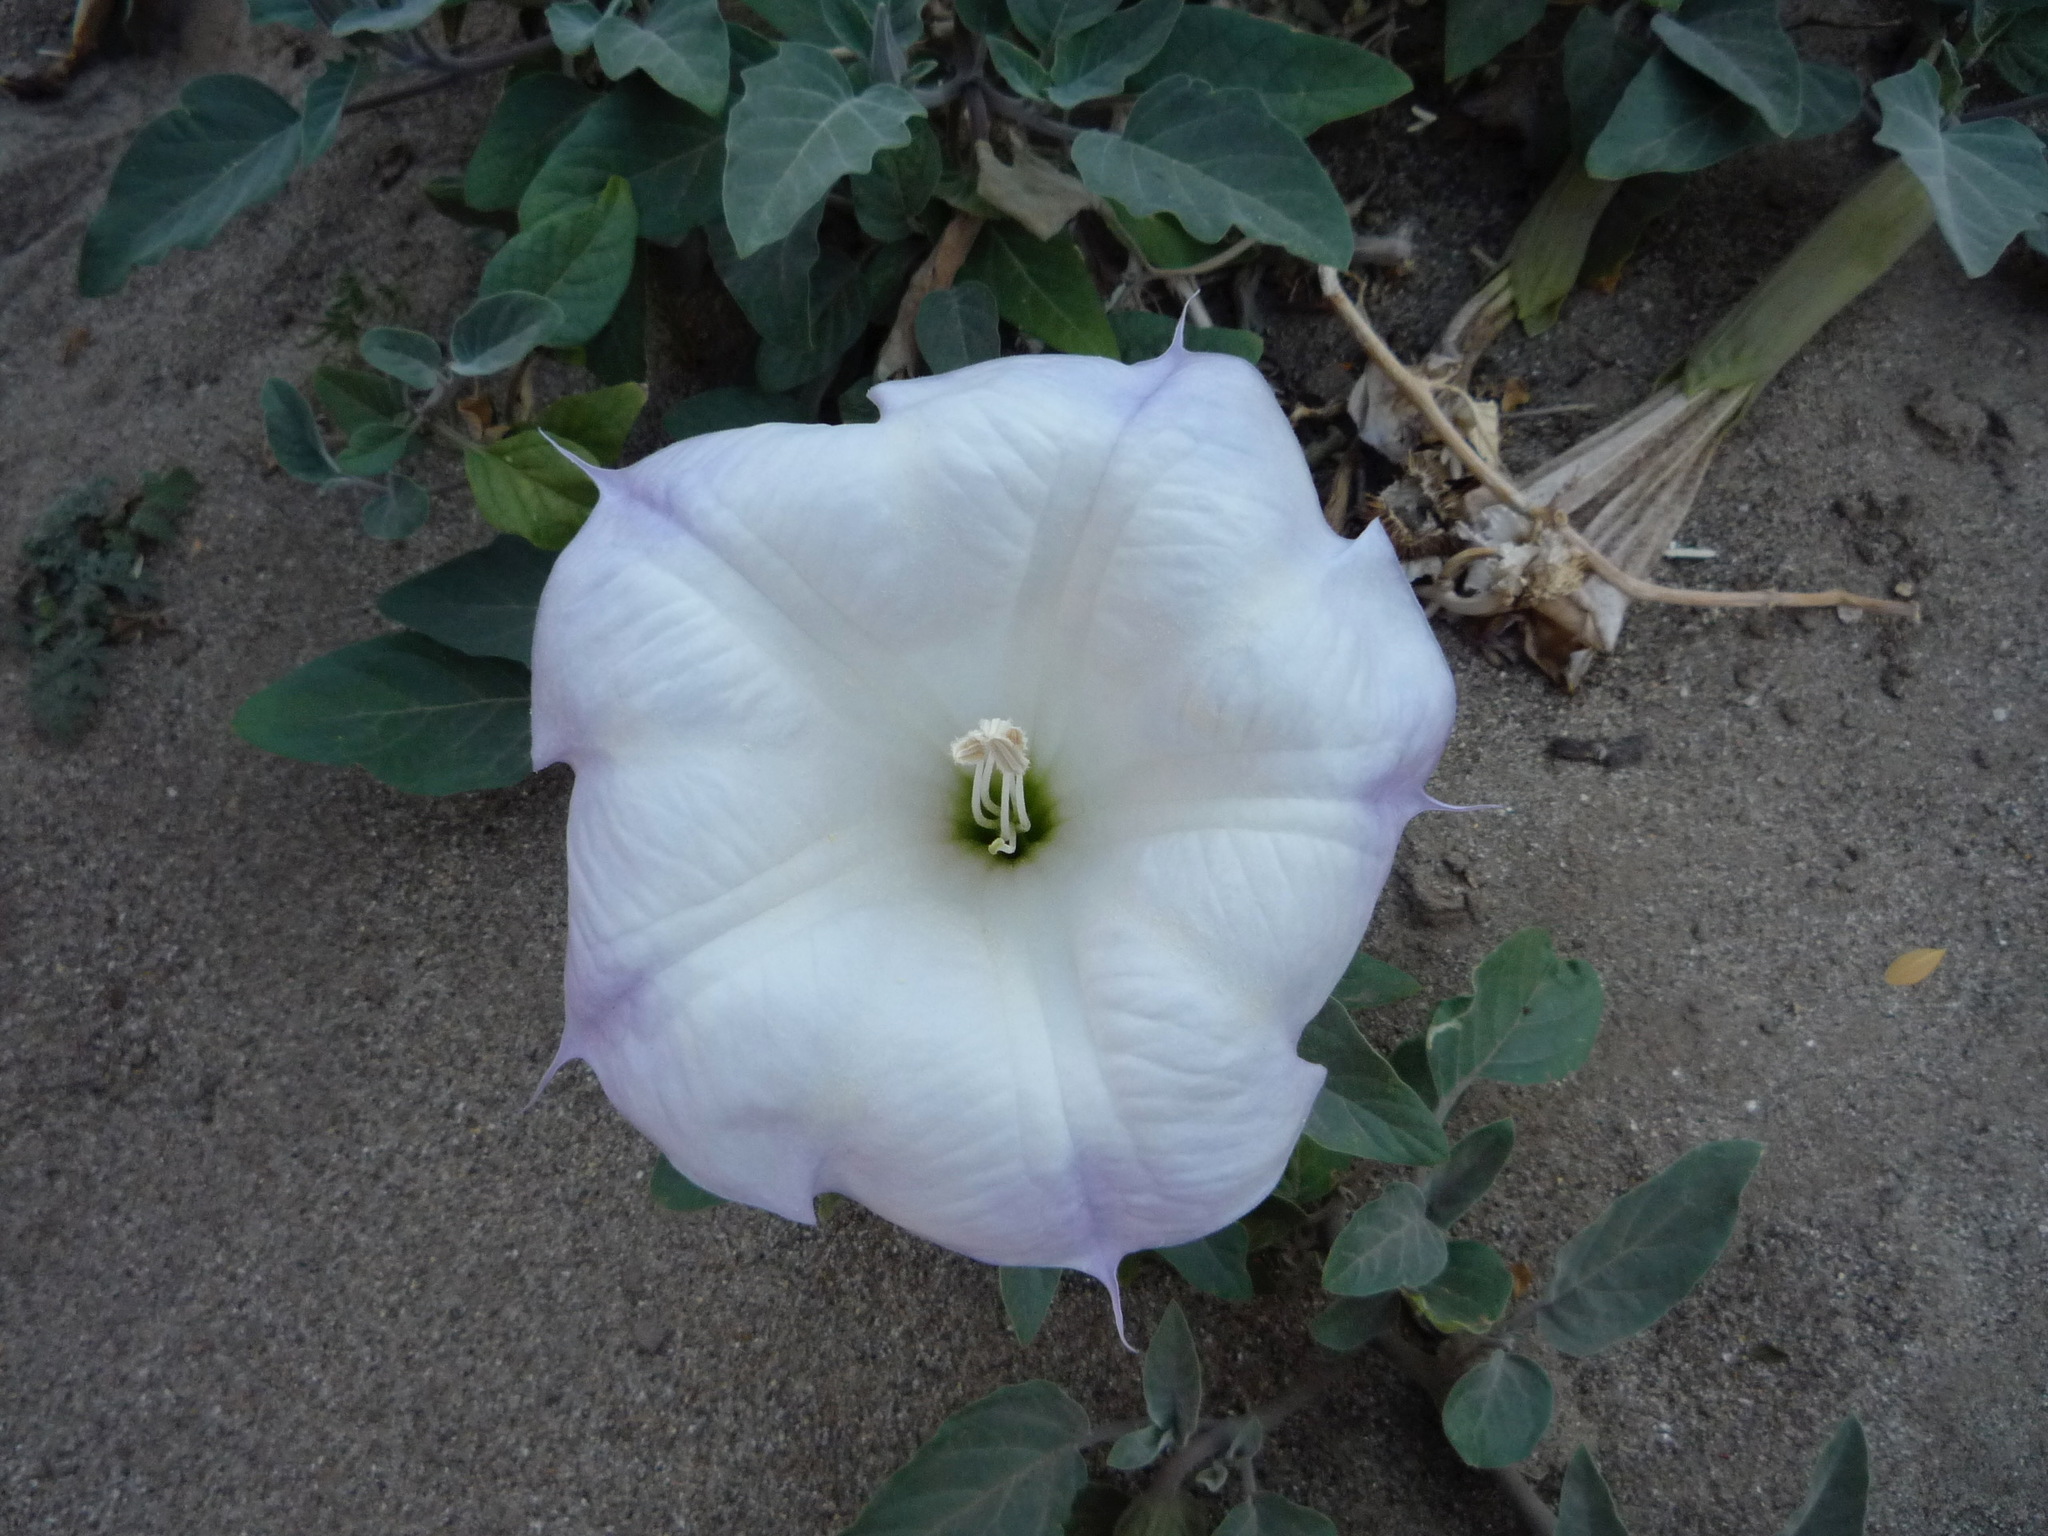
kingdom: Plantae
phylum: Tracheophyta
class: Magnoliopsida
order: Solanales
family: Solanaceae
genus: Datura
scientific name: Datura wrightii
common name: Sacred thorn-apple
